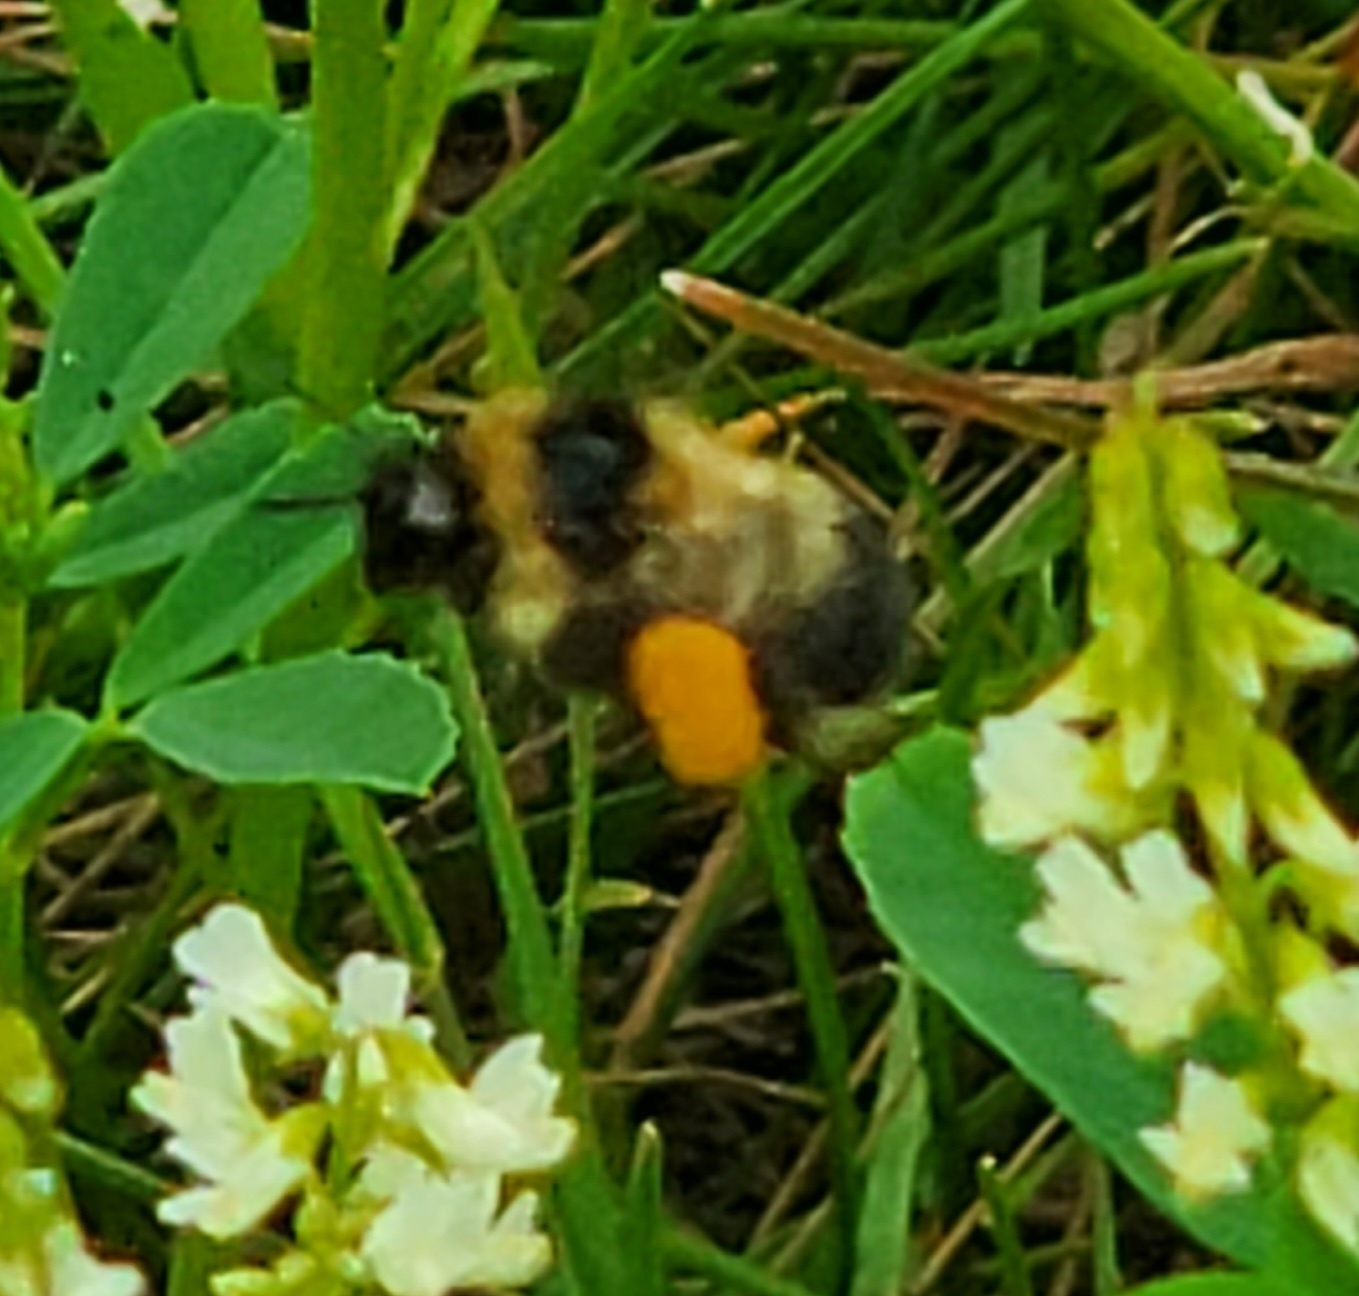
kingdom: Animalia
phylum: Arthropoda
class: Insecta
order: Hymenoptera
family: Apidae
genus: Bombus
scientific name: Bombus rufocinctus
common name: Red-belted bumble bee
